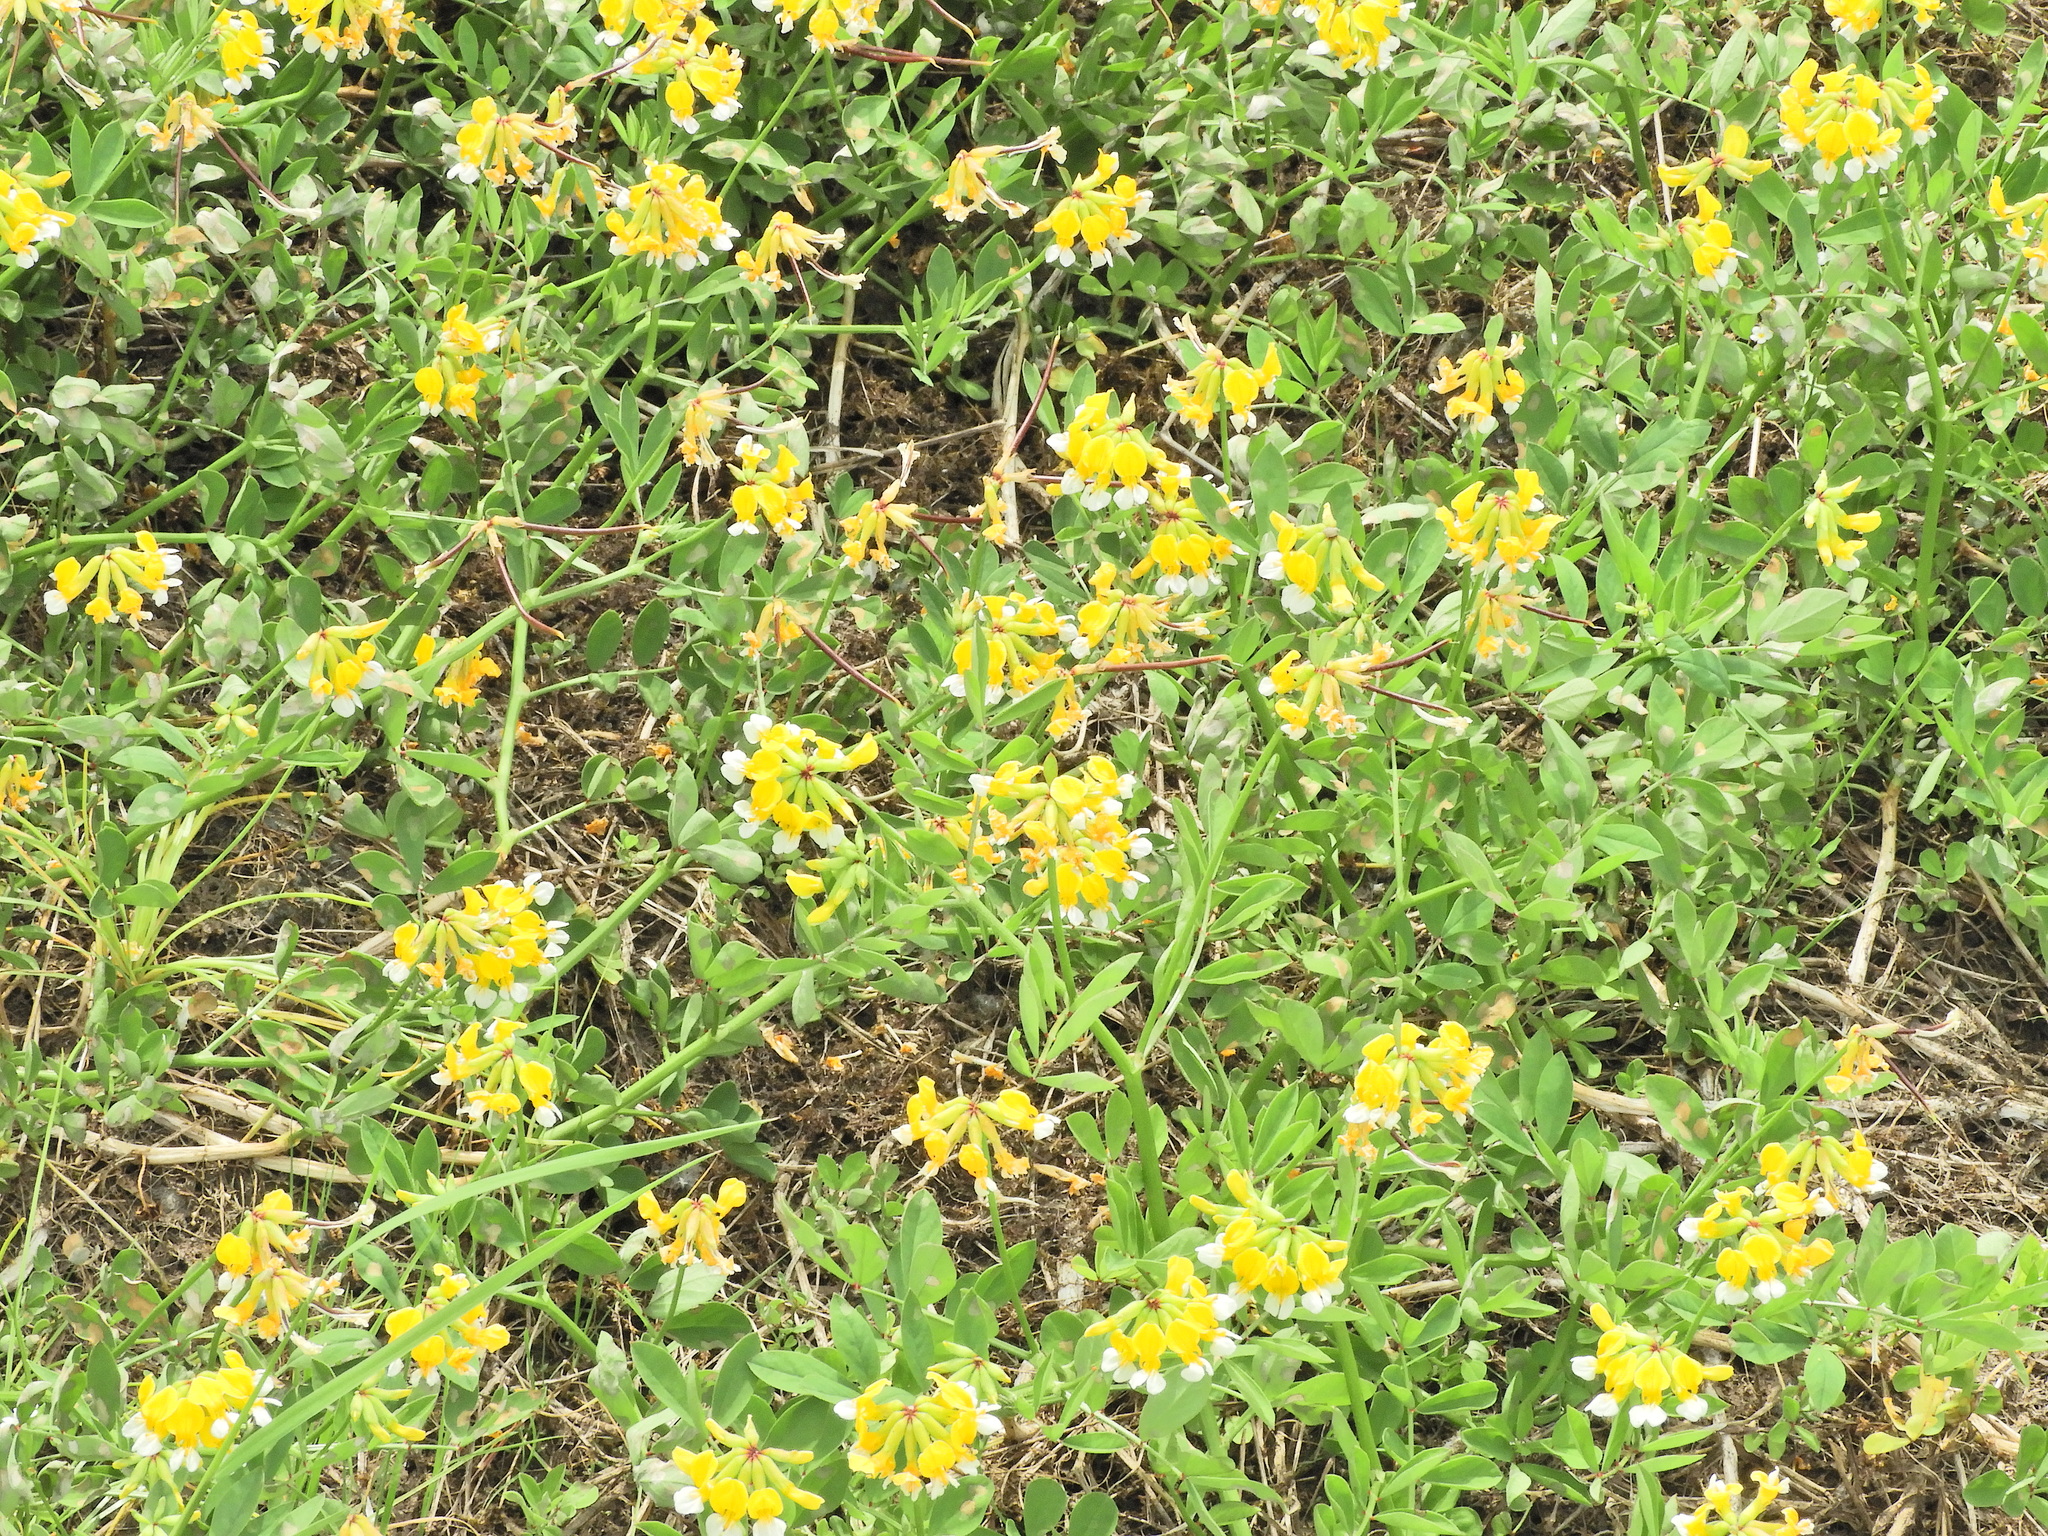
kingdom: Plantae
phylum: Tracheophyta
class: Magnoliopsida
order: Fabales
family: Fabaceae
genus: Hosackia
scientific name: Hosackia pinnata
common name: Bog bird's-foot trefoil
